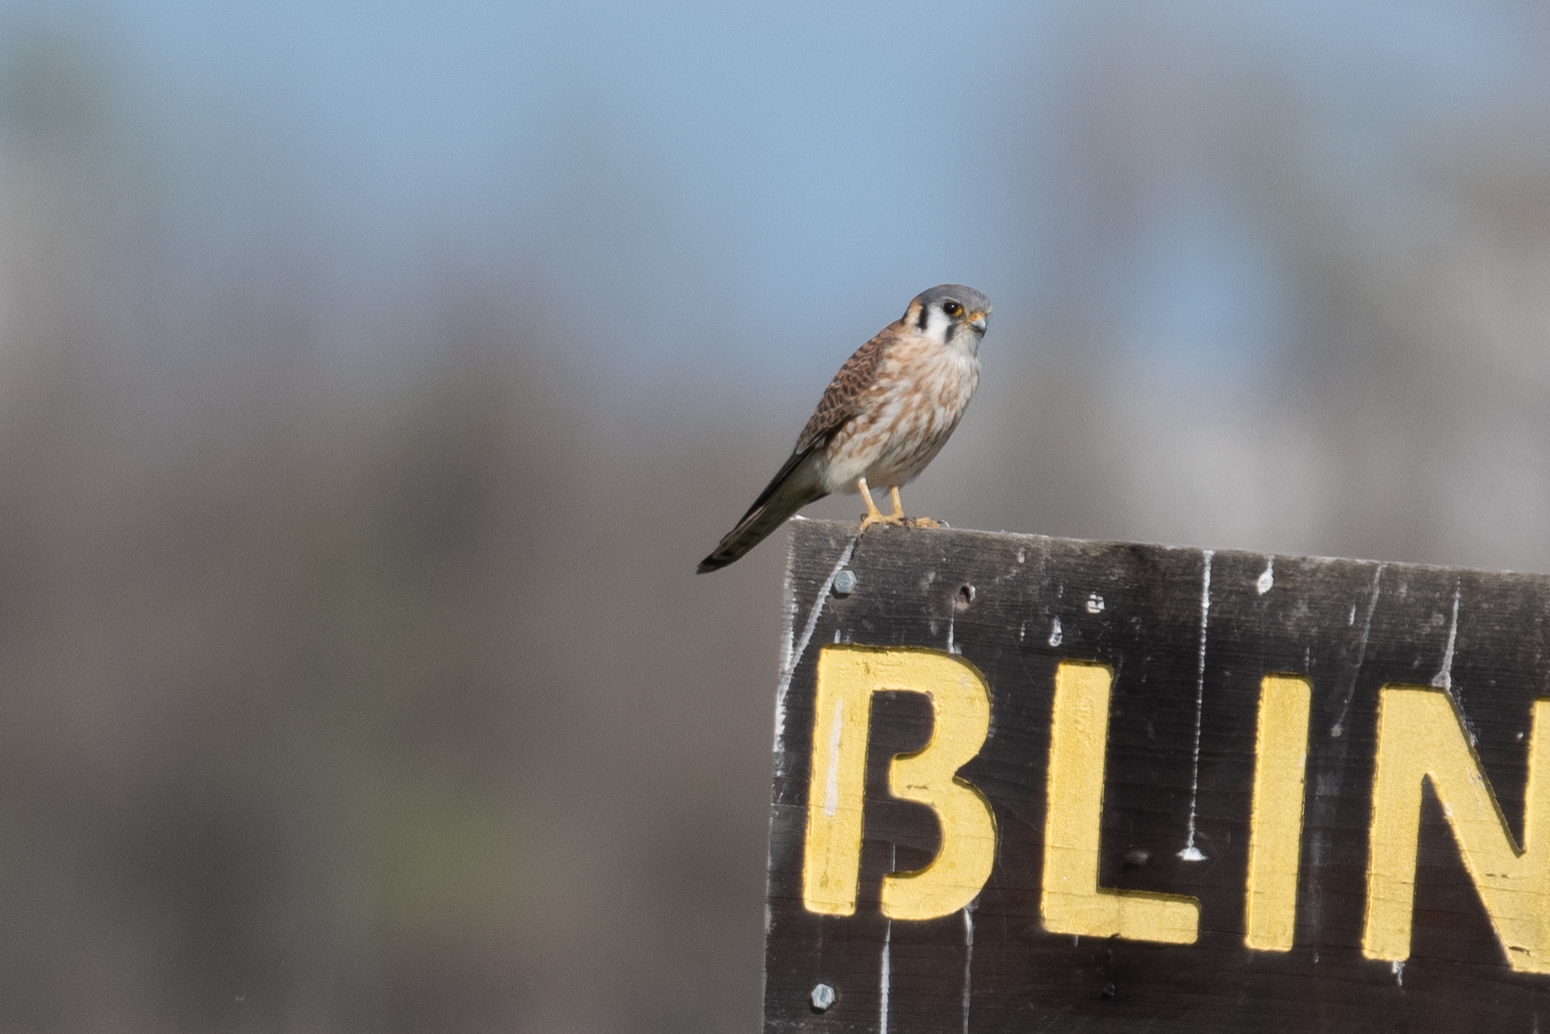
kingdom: Animalia
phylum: Chordata
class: Aves
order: Falconiformes
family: Falconidae
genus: Falco
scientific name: Falco sparverius
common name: American kestrel
